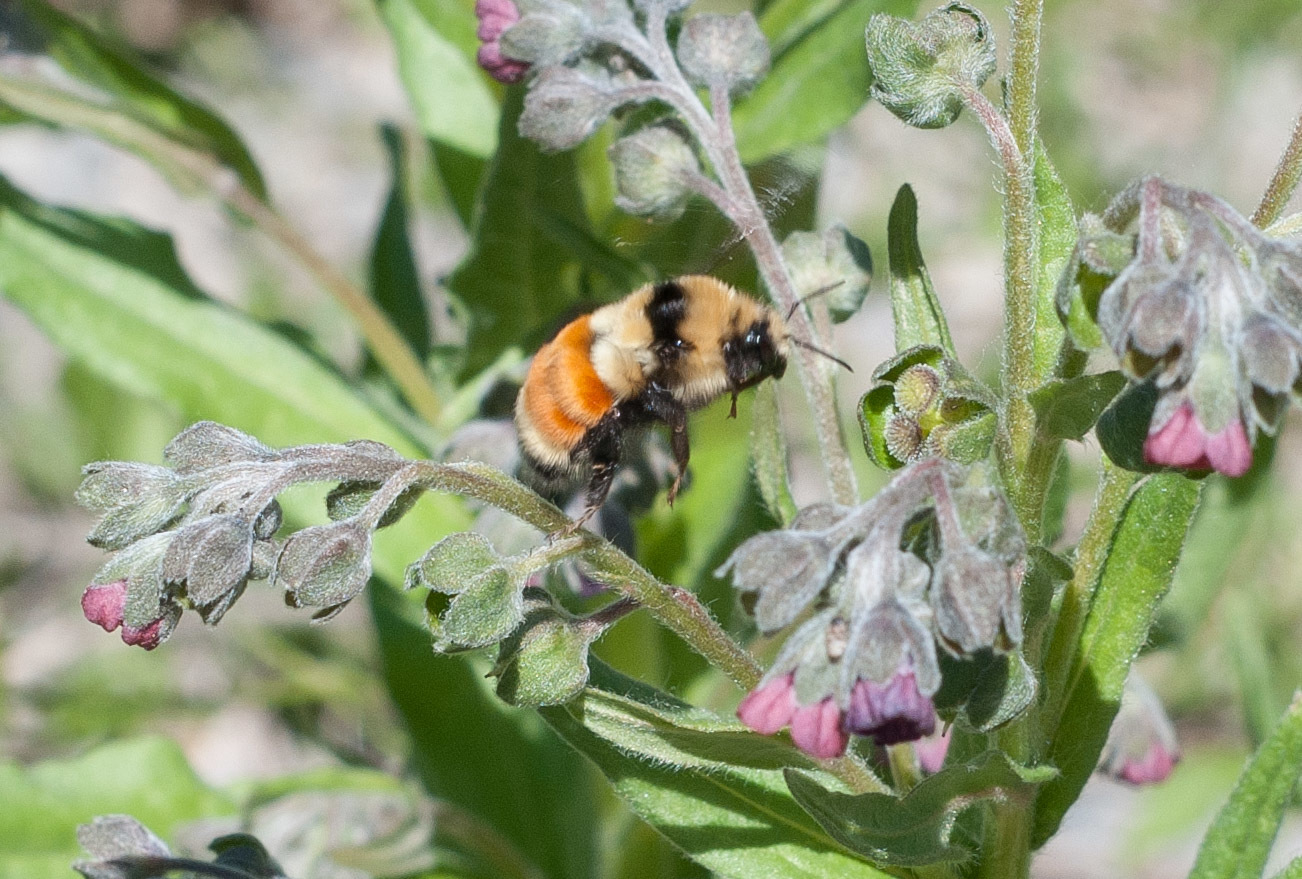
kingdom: Animalia
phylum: Arthropoda
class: Insecta
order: Hymenoptera
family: Apidae
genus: Bombus
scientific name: Bombus huntii
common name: Hunt bumble bee
